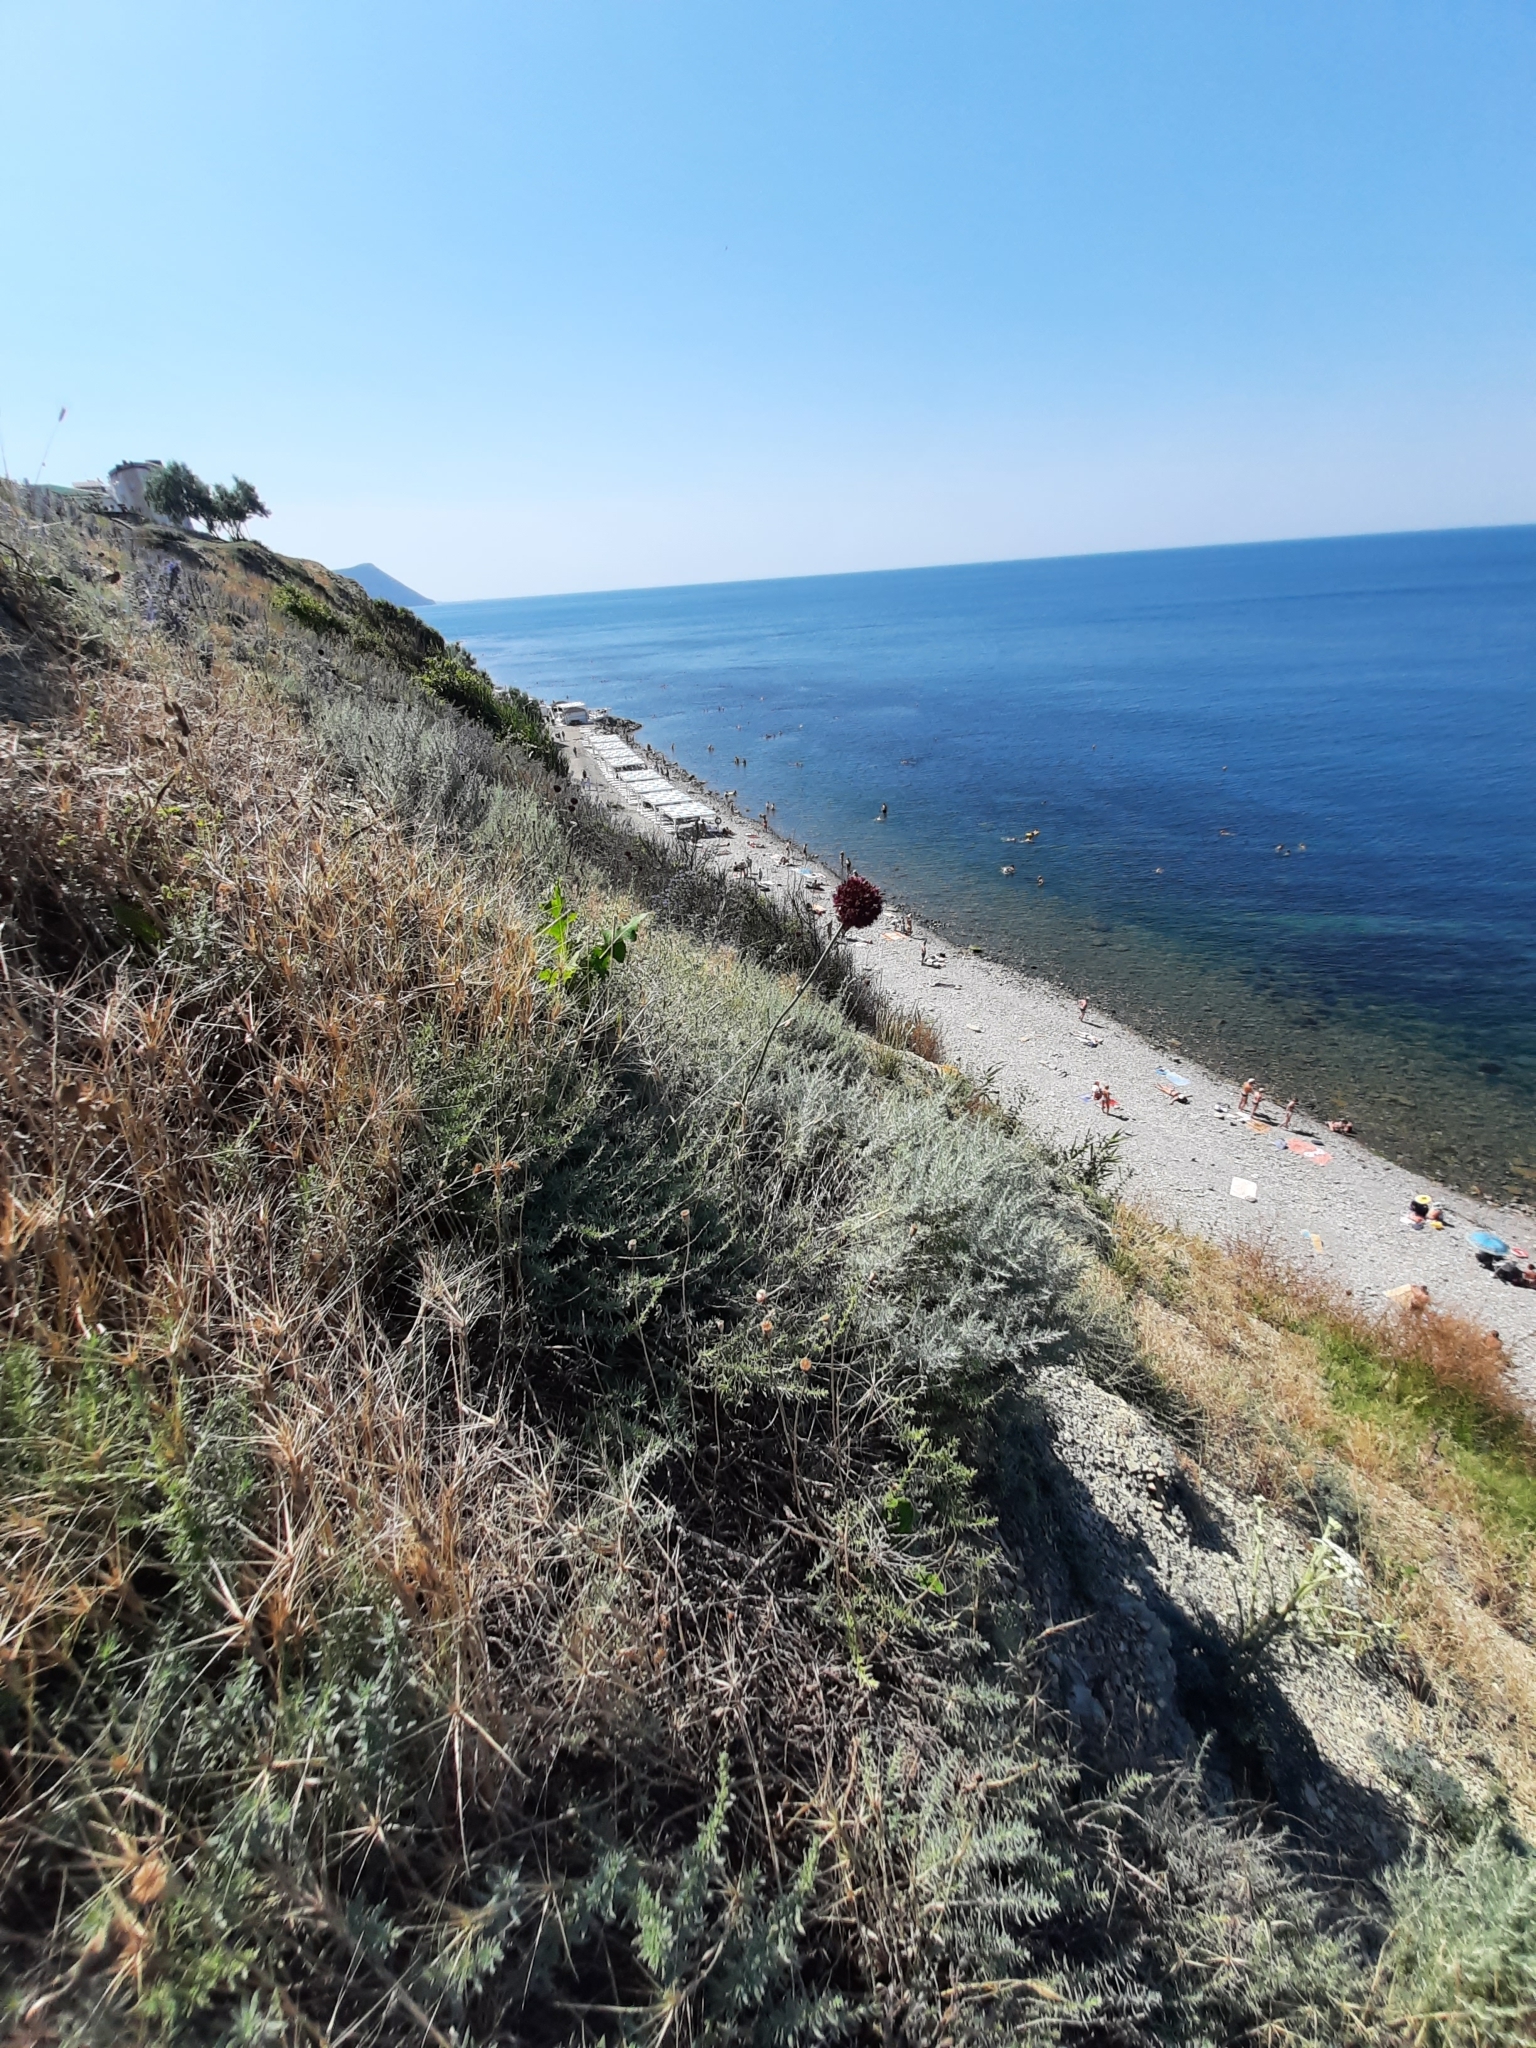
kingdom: Plantae
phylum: Tracheophyta
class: Liliopsida
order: Asparagales
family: Amaryllidaceae
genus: Allium
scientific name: Allium atroviolaceum
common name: Broadleaf wild leek
